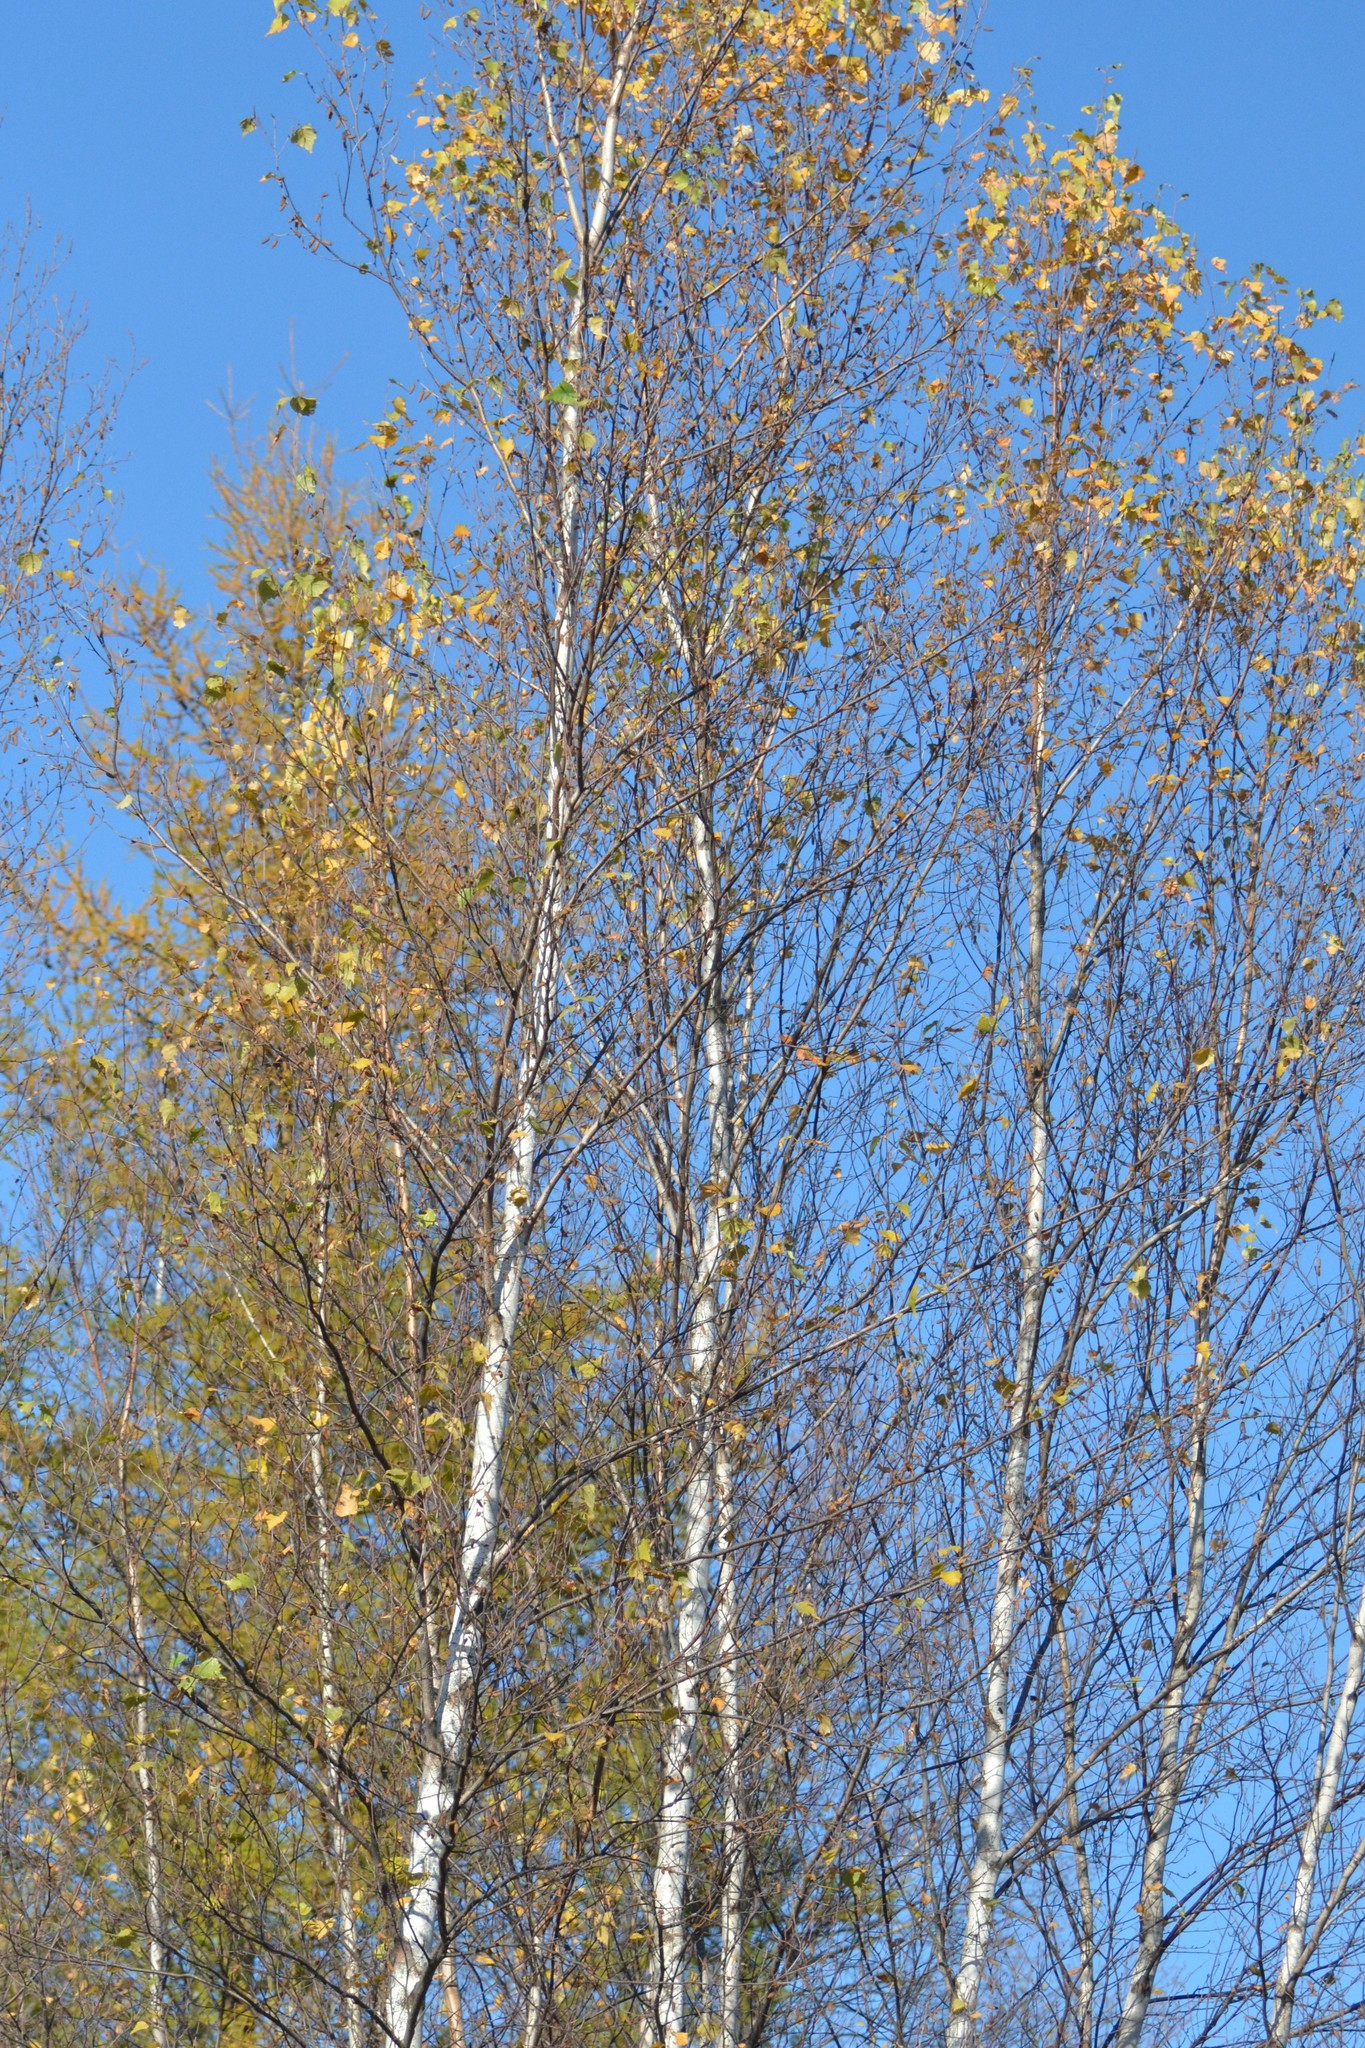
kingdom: Plantae
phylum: Tracheophyta
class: Magnoliopsida
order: Fagales
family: Betulaceae
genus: Betula
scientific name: Betula populifolia
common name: Fire birch
